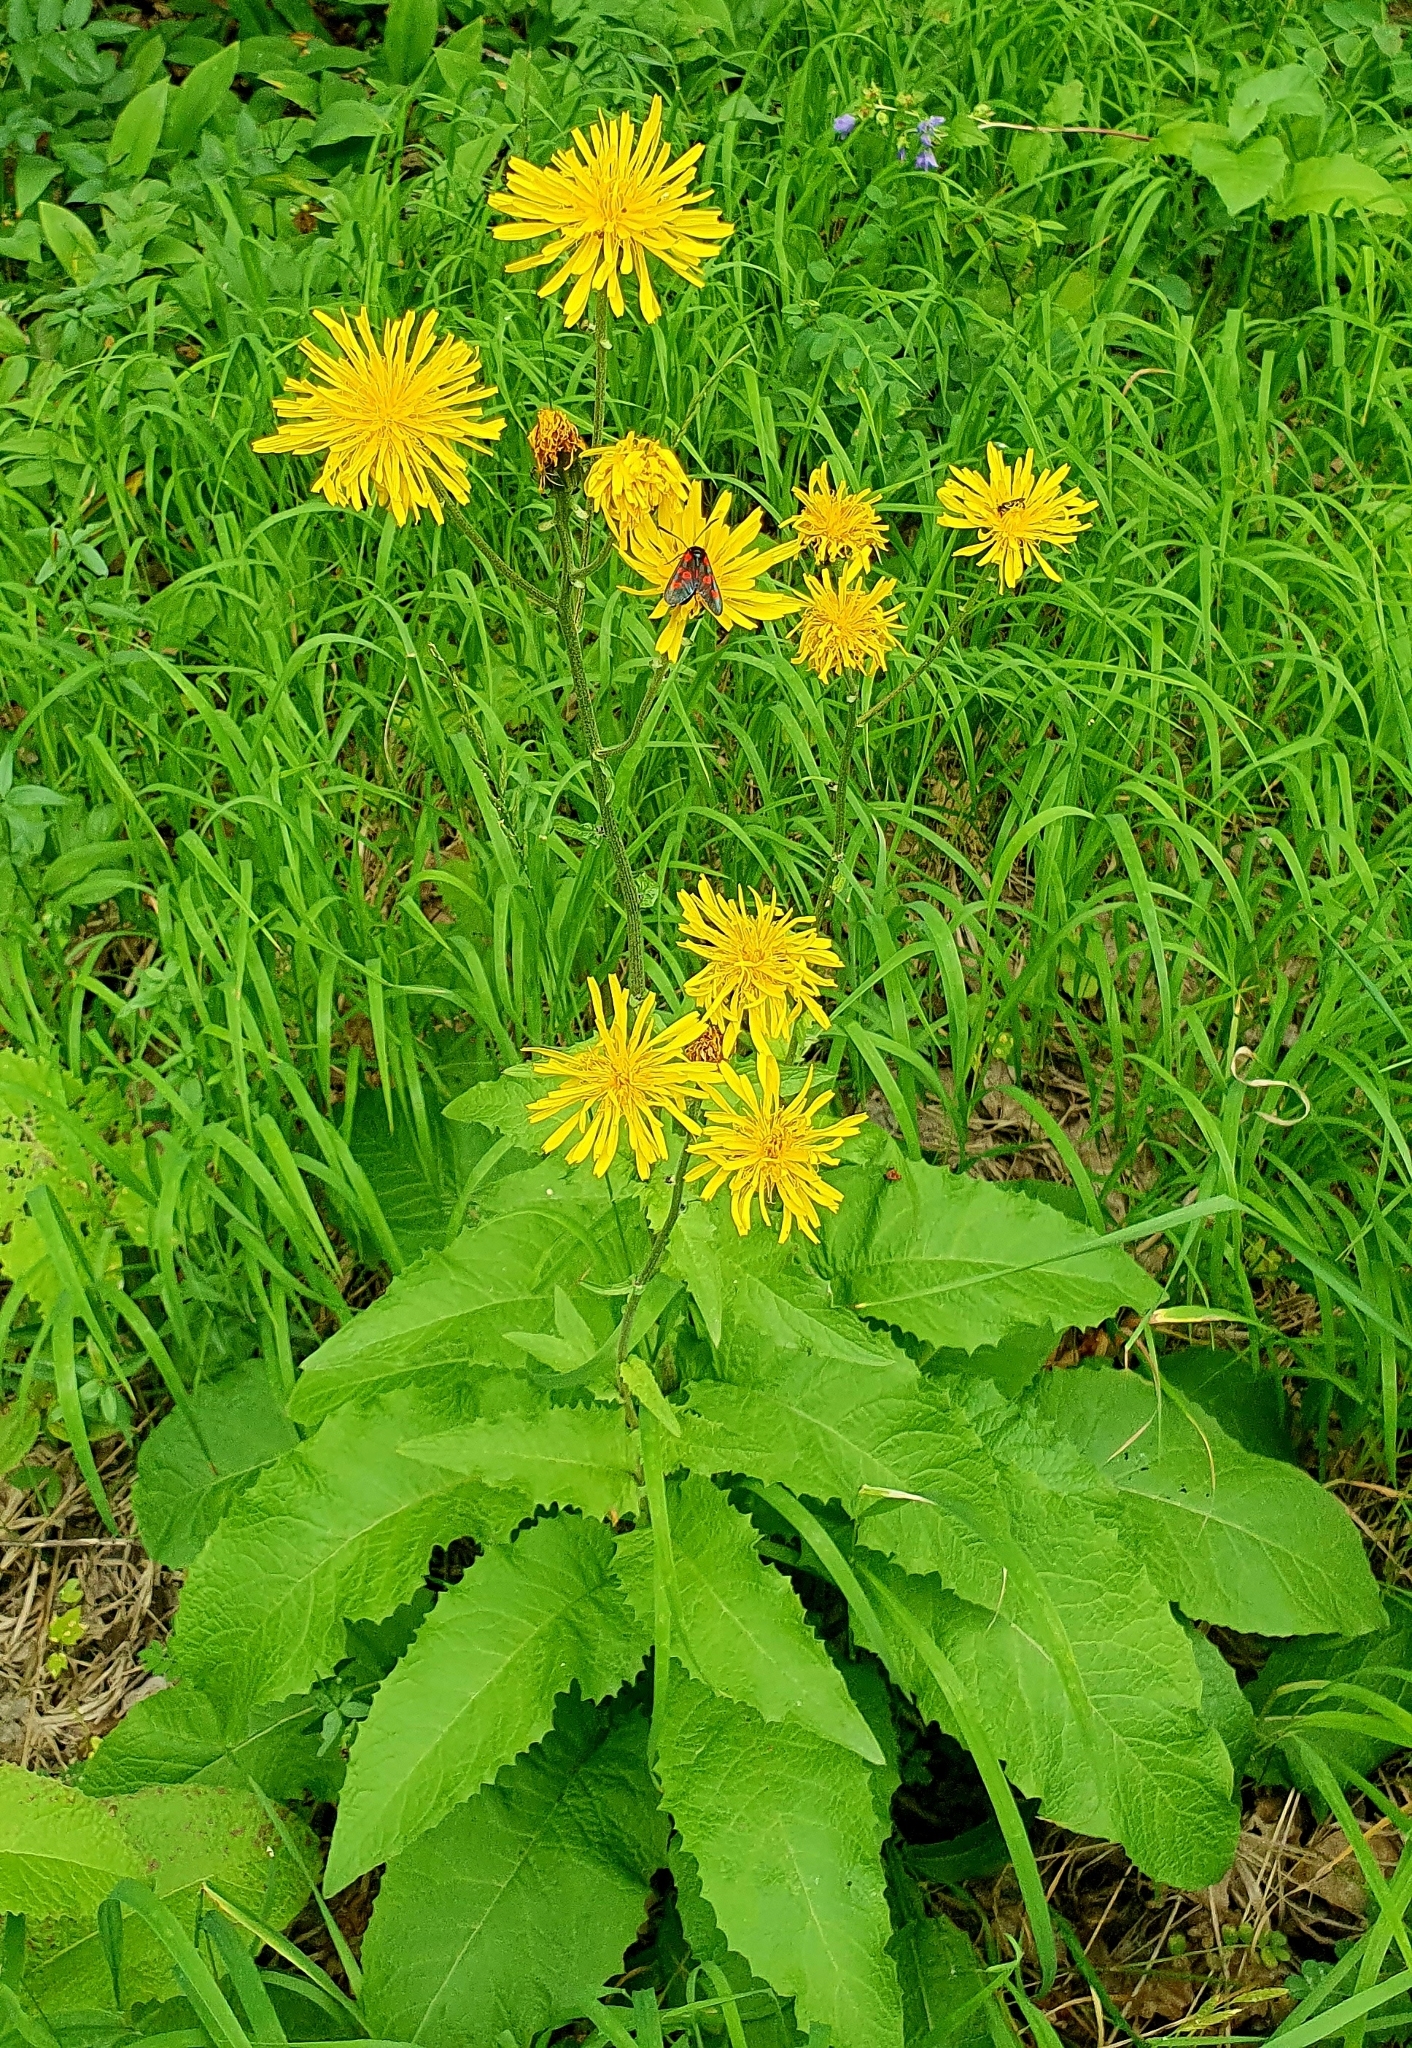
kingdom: Plantae
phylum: Tracheophyta
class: Magnoliopsida
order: Asterales
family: Asteraceae
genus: Crepis
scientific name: Crepis sibirica
